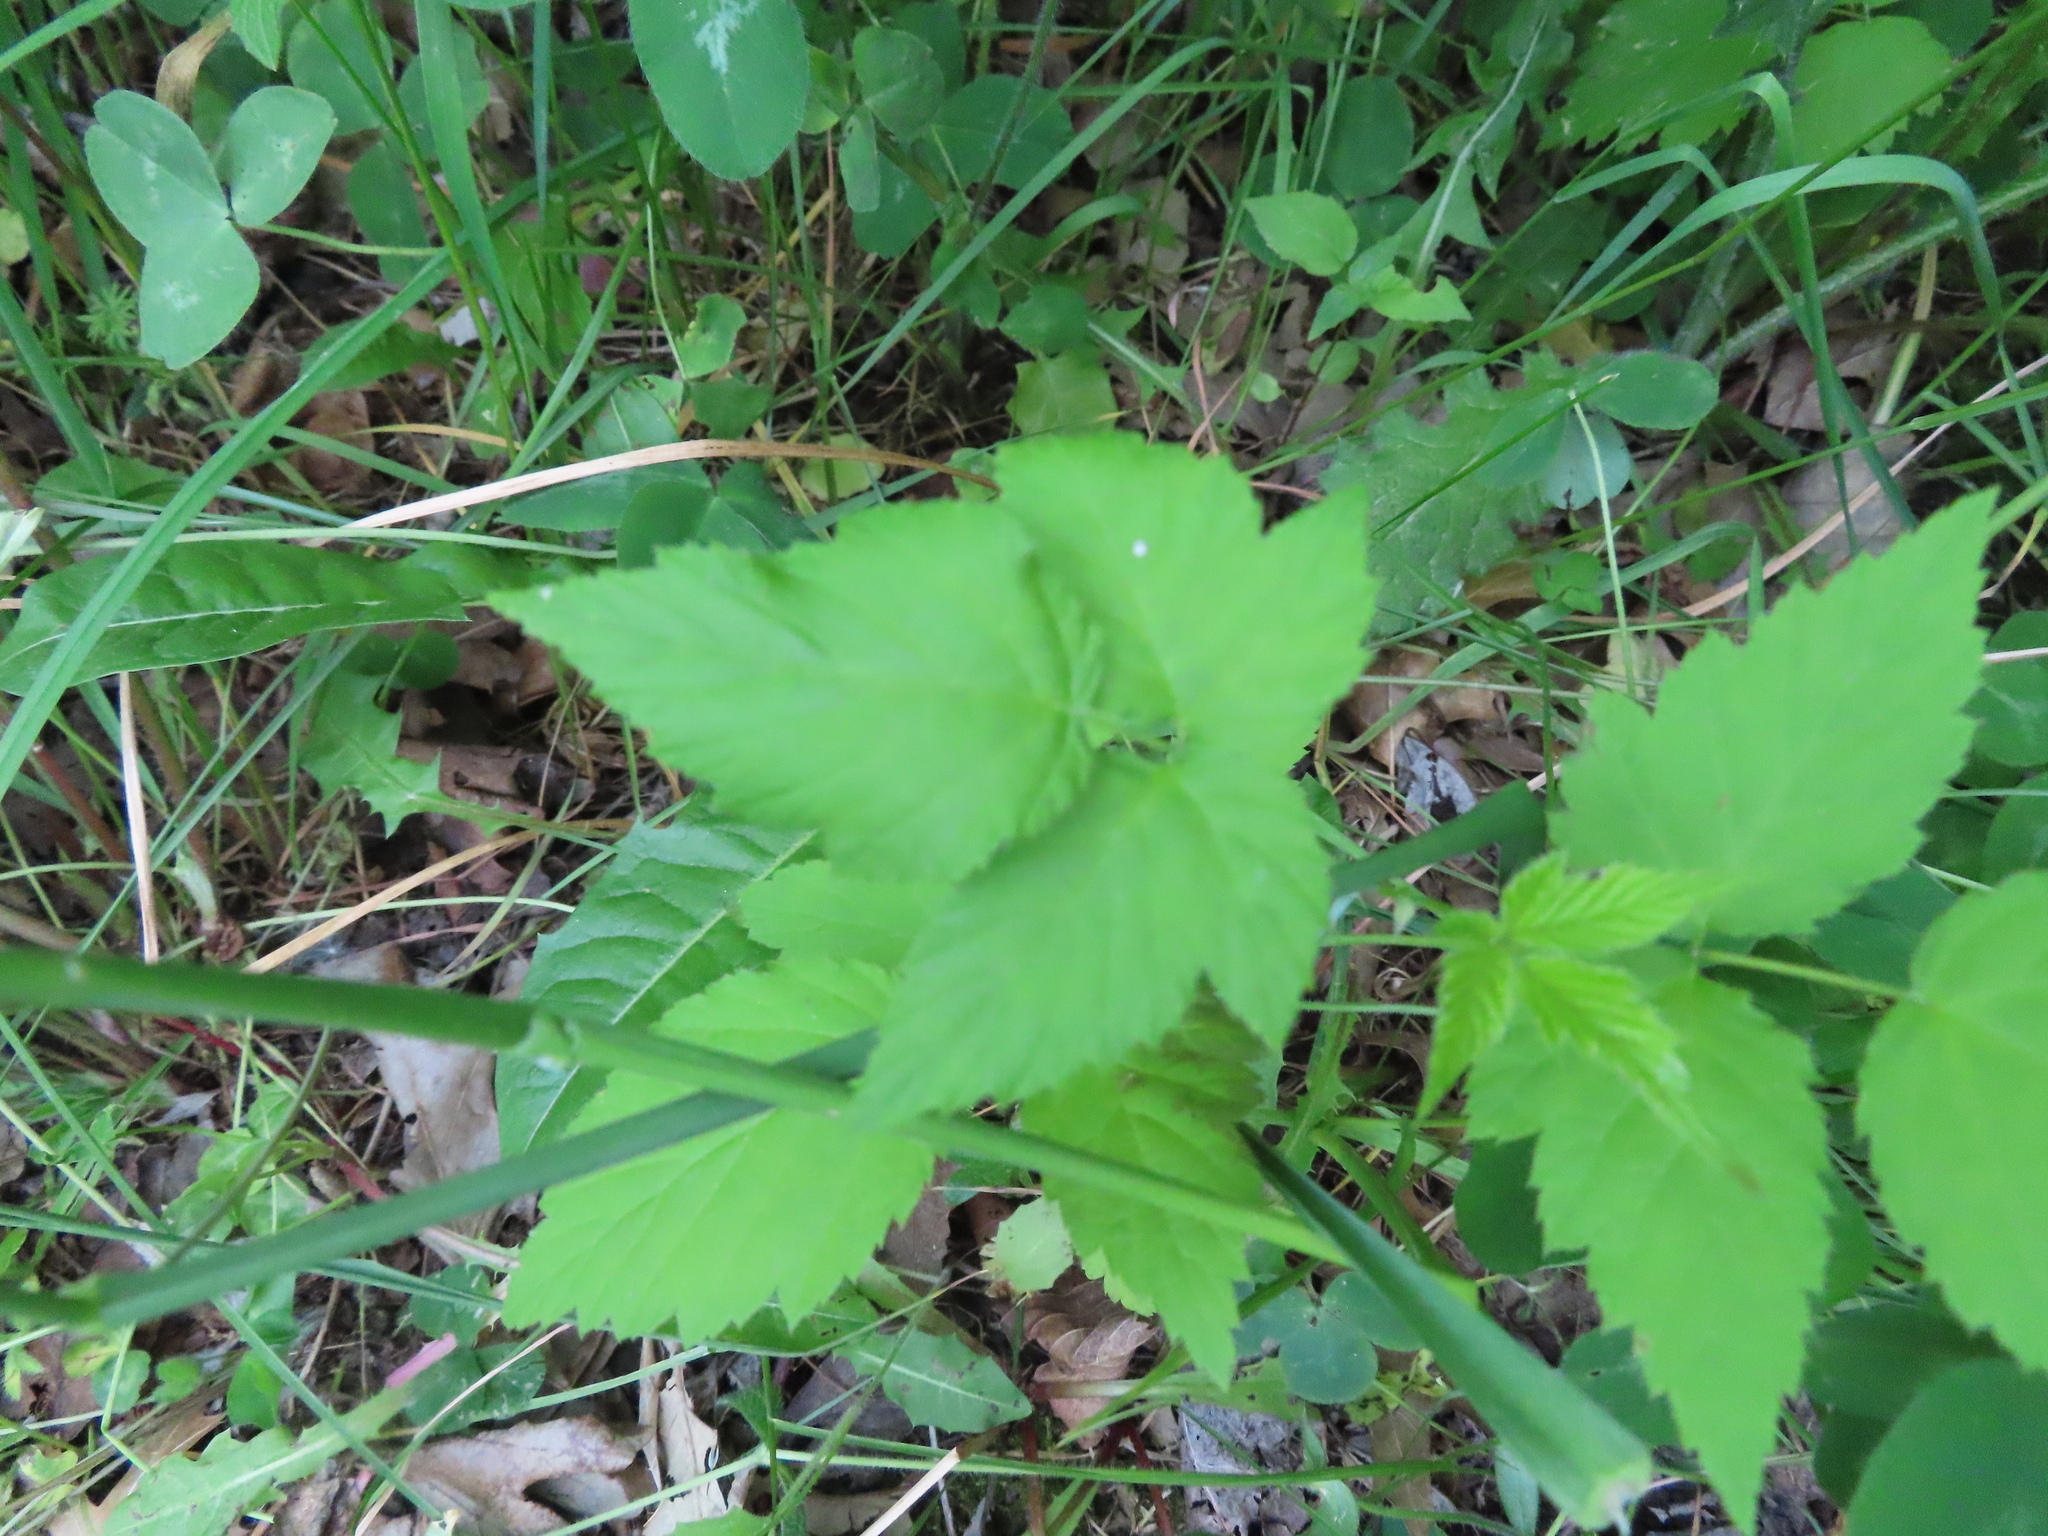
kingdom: Plantae
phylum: Tracheophyta
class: Magnoliopsida
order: Rosales
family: Rosaceae
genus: Rubus
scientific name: Rubus occidentalis
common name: Black raspberry
